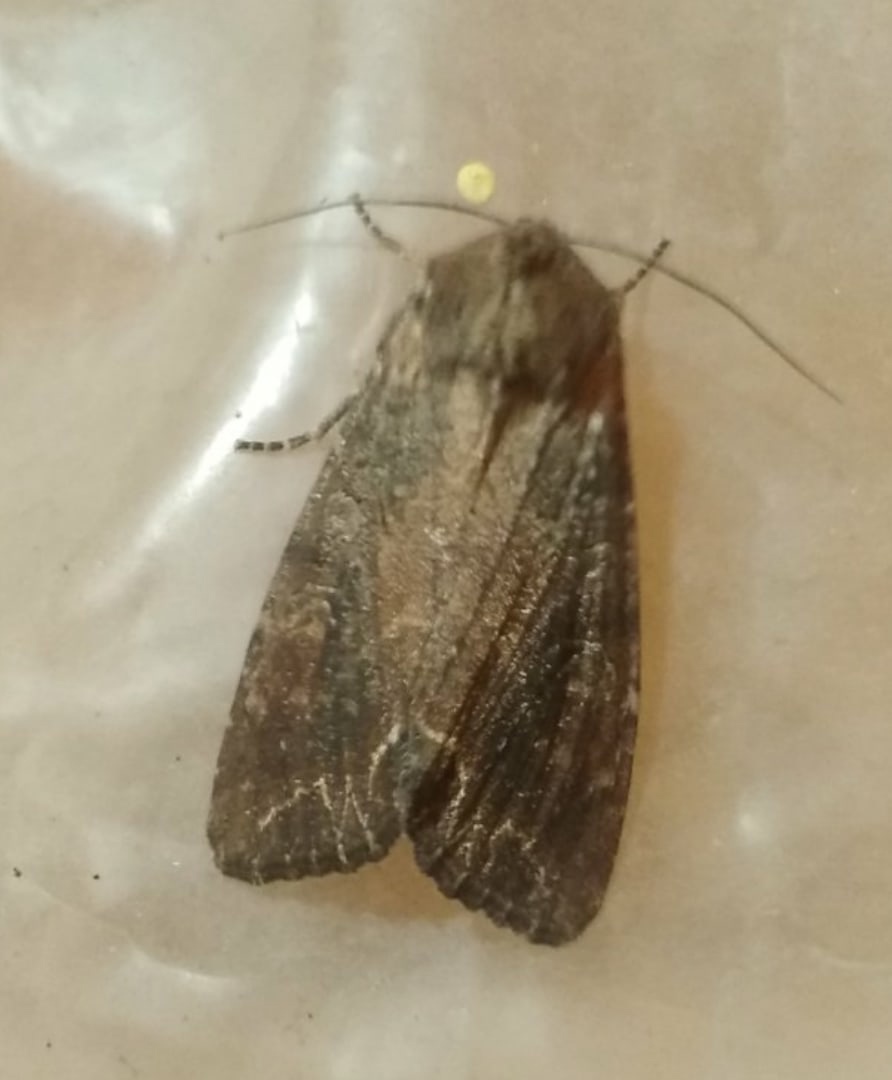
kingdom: Animalia
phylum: Arthropoda
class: Insecta
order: Lepidoptera
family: Noctuidae
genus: Lacanobia
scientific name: Lacanobia suasa
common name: Dog's tooth
